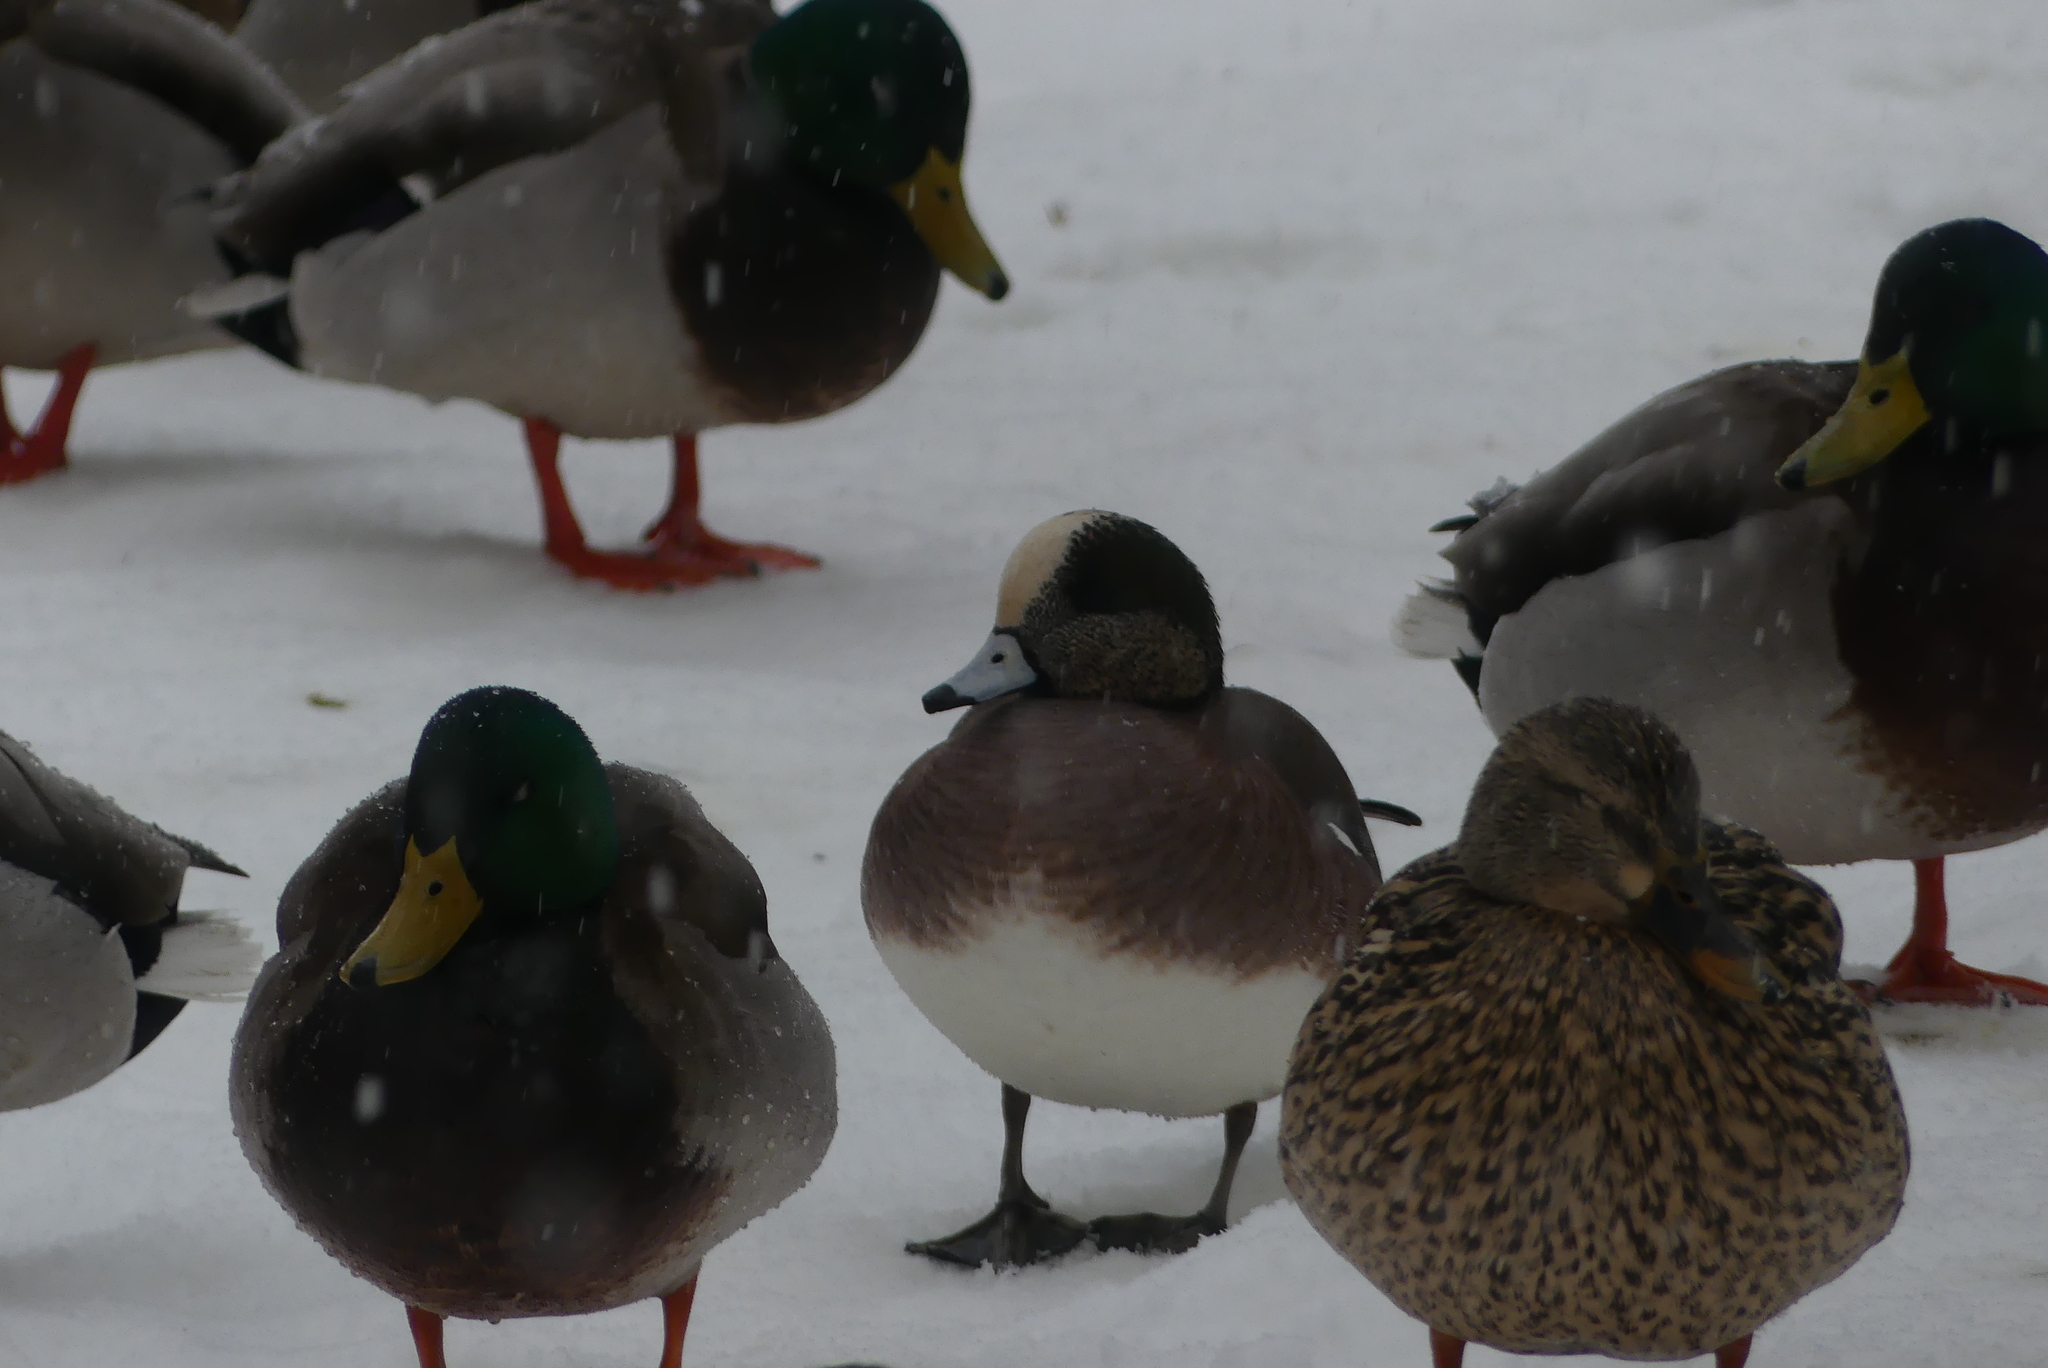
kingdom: Animalia
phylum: Chordata
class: Aves
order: Anseriformes
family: Anatidae
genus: Mareca
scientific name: Mareca americana
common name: American wigeon
